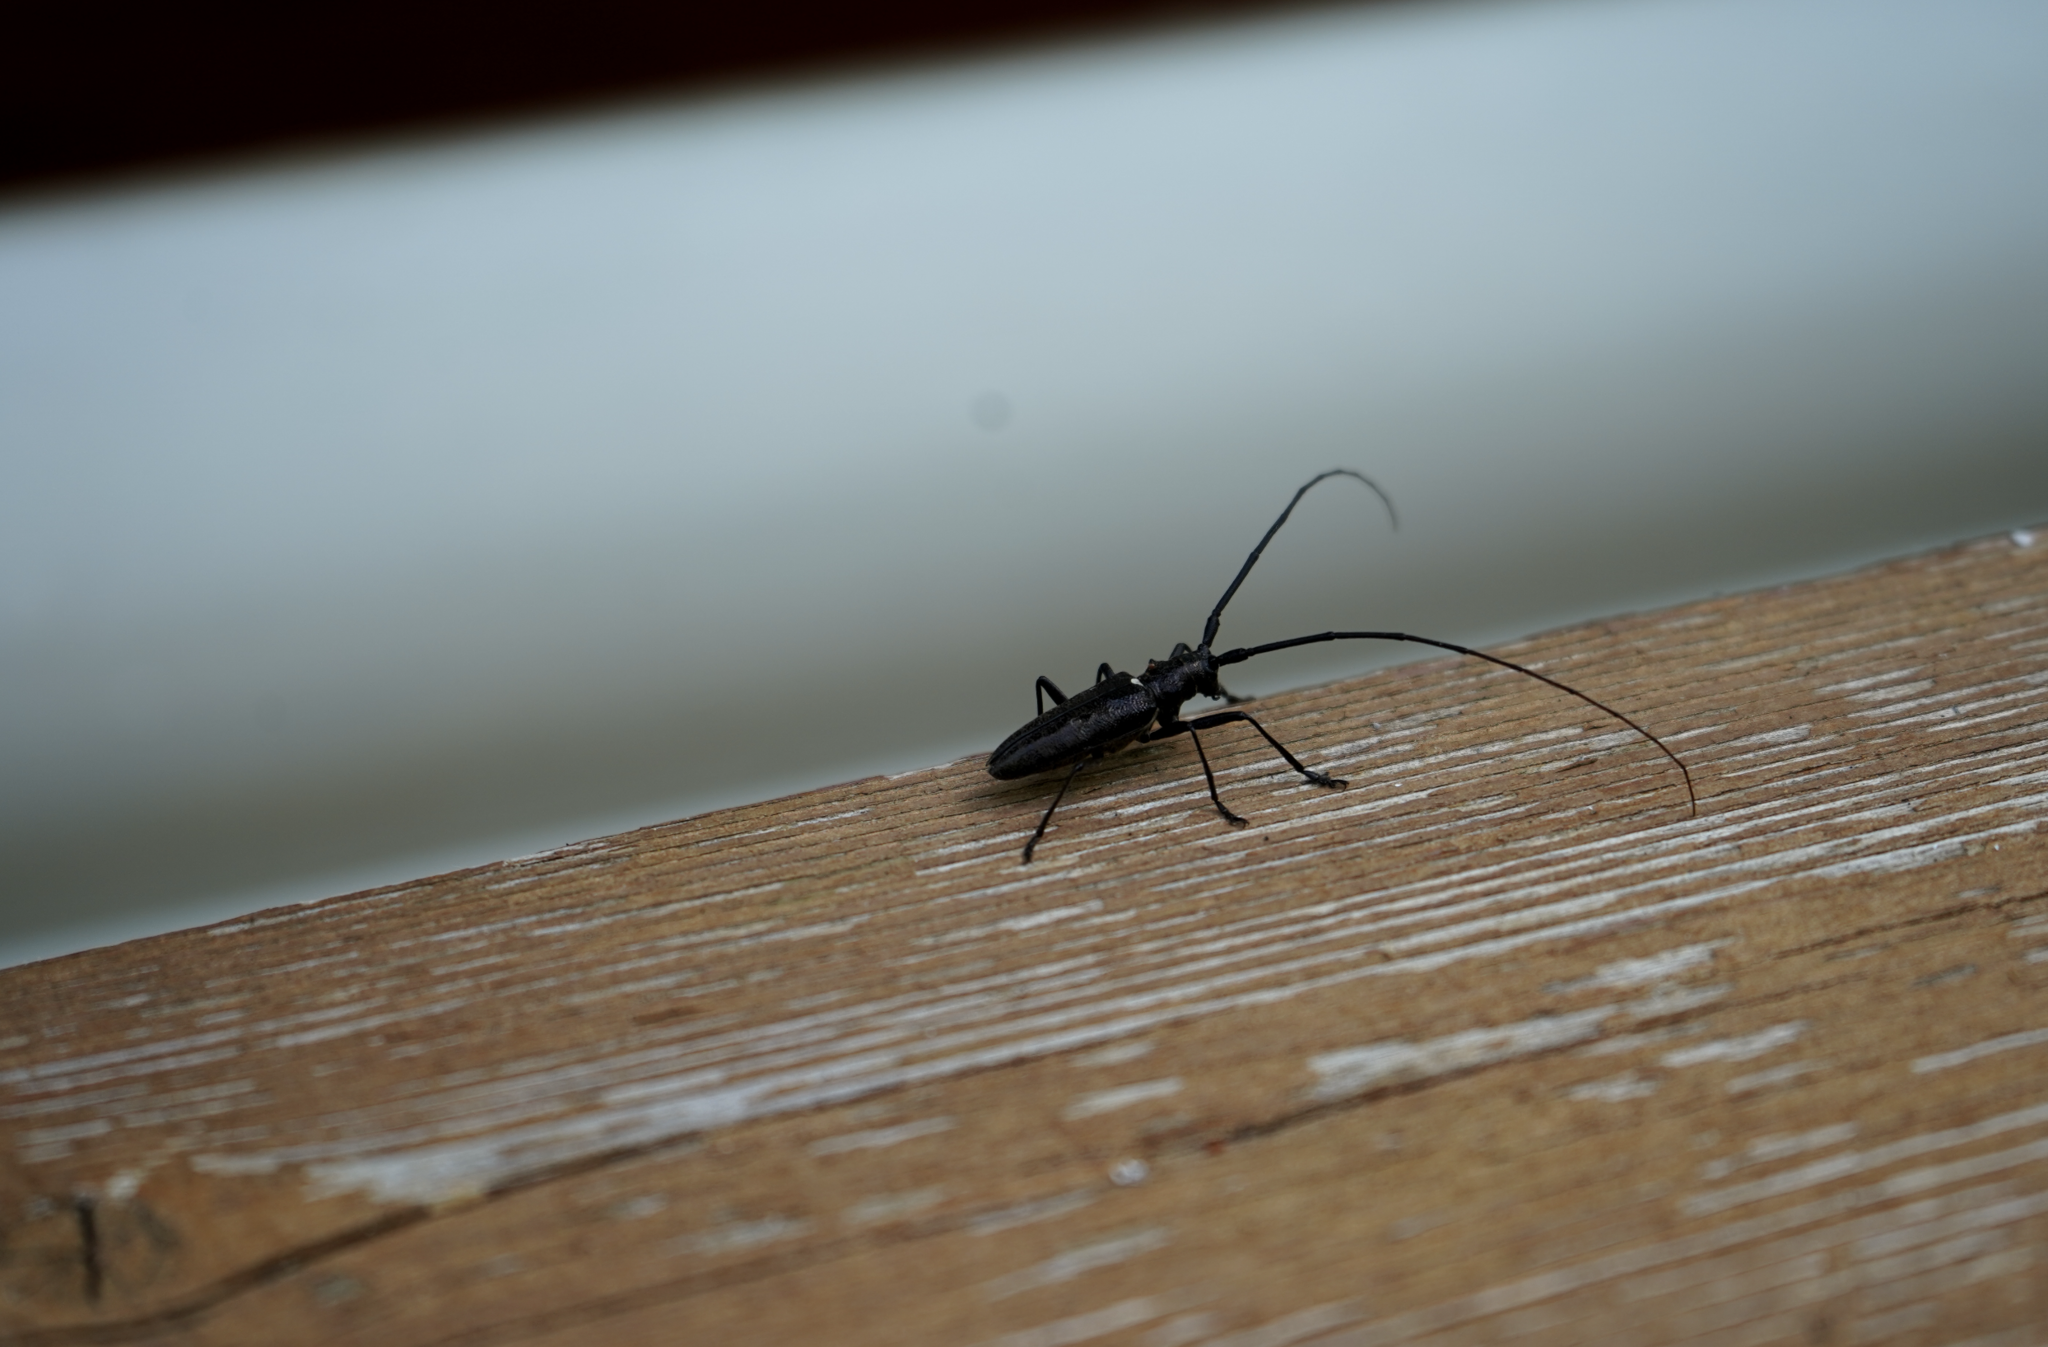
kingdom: Animalia
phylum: Arthropoda
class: Insecta
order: Coleoptera
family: Cerambycidae
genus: Monochamus
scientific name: Monochamus scutellatus
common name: White-spotted sawyer beetle
